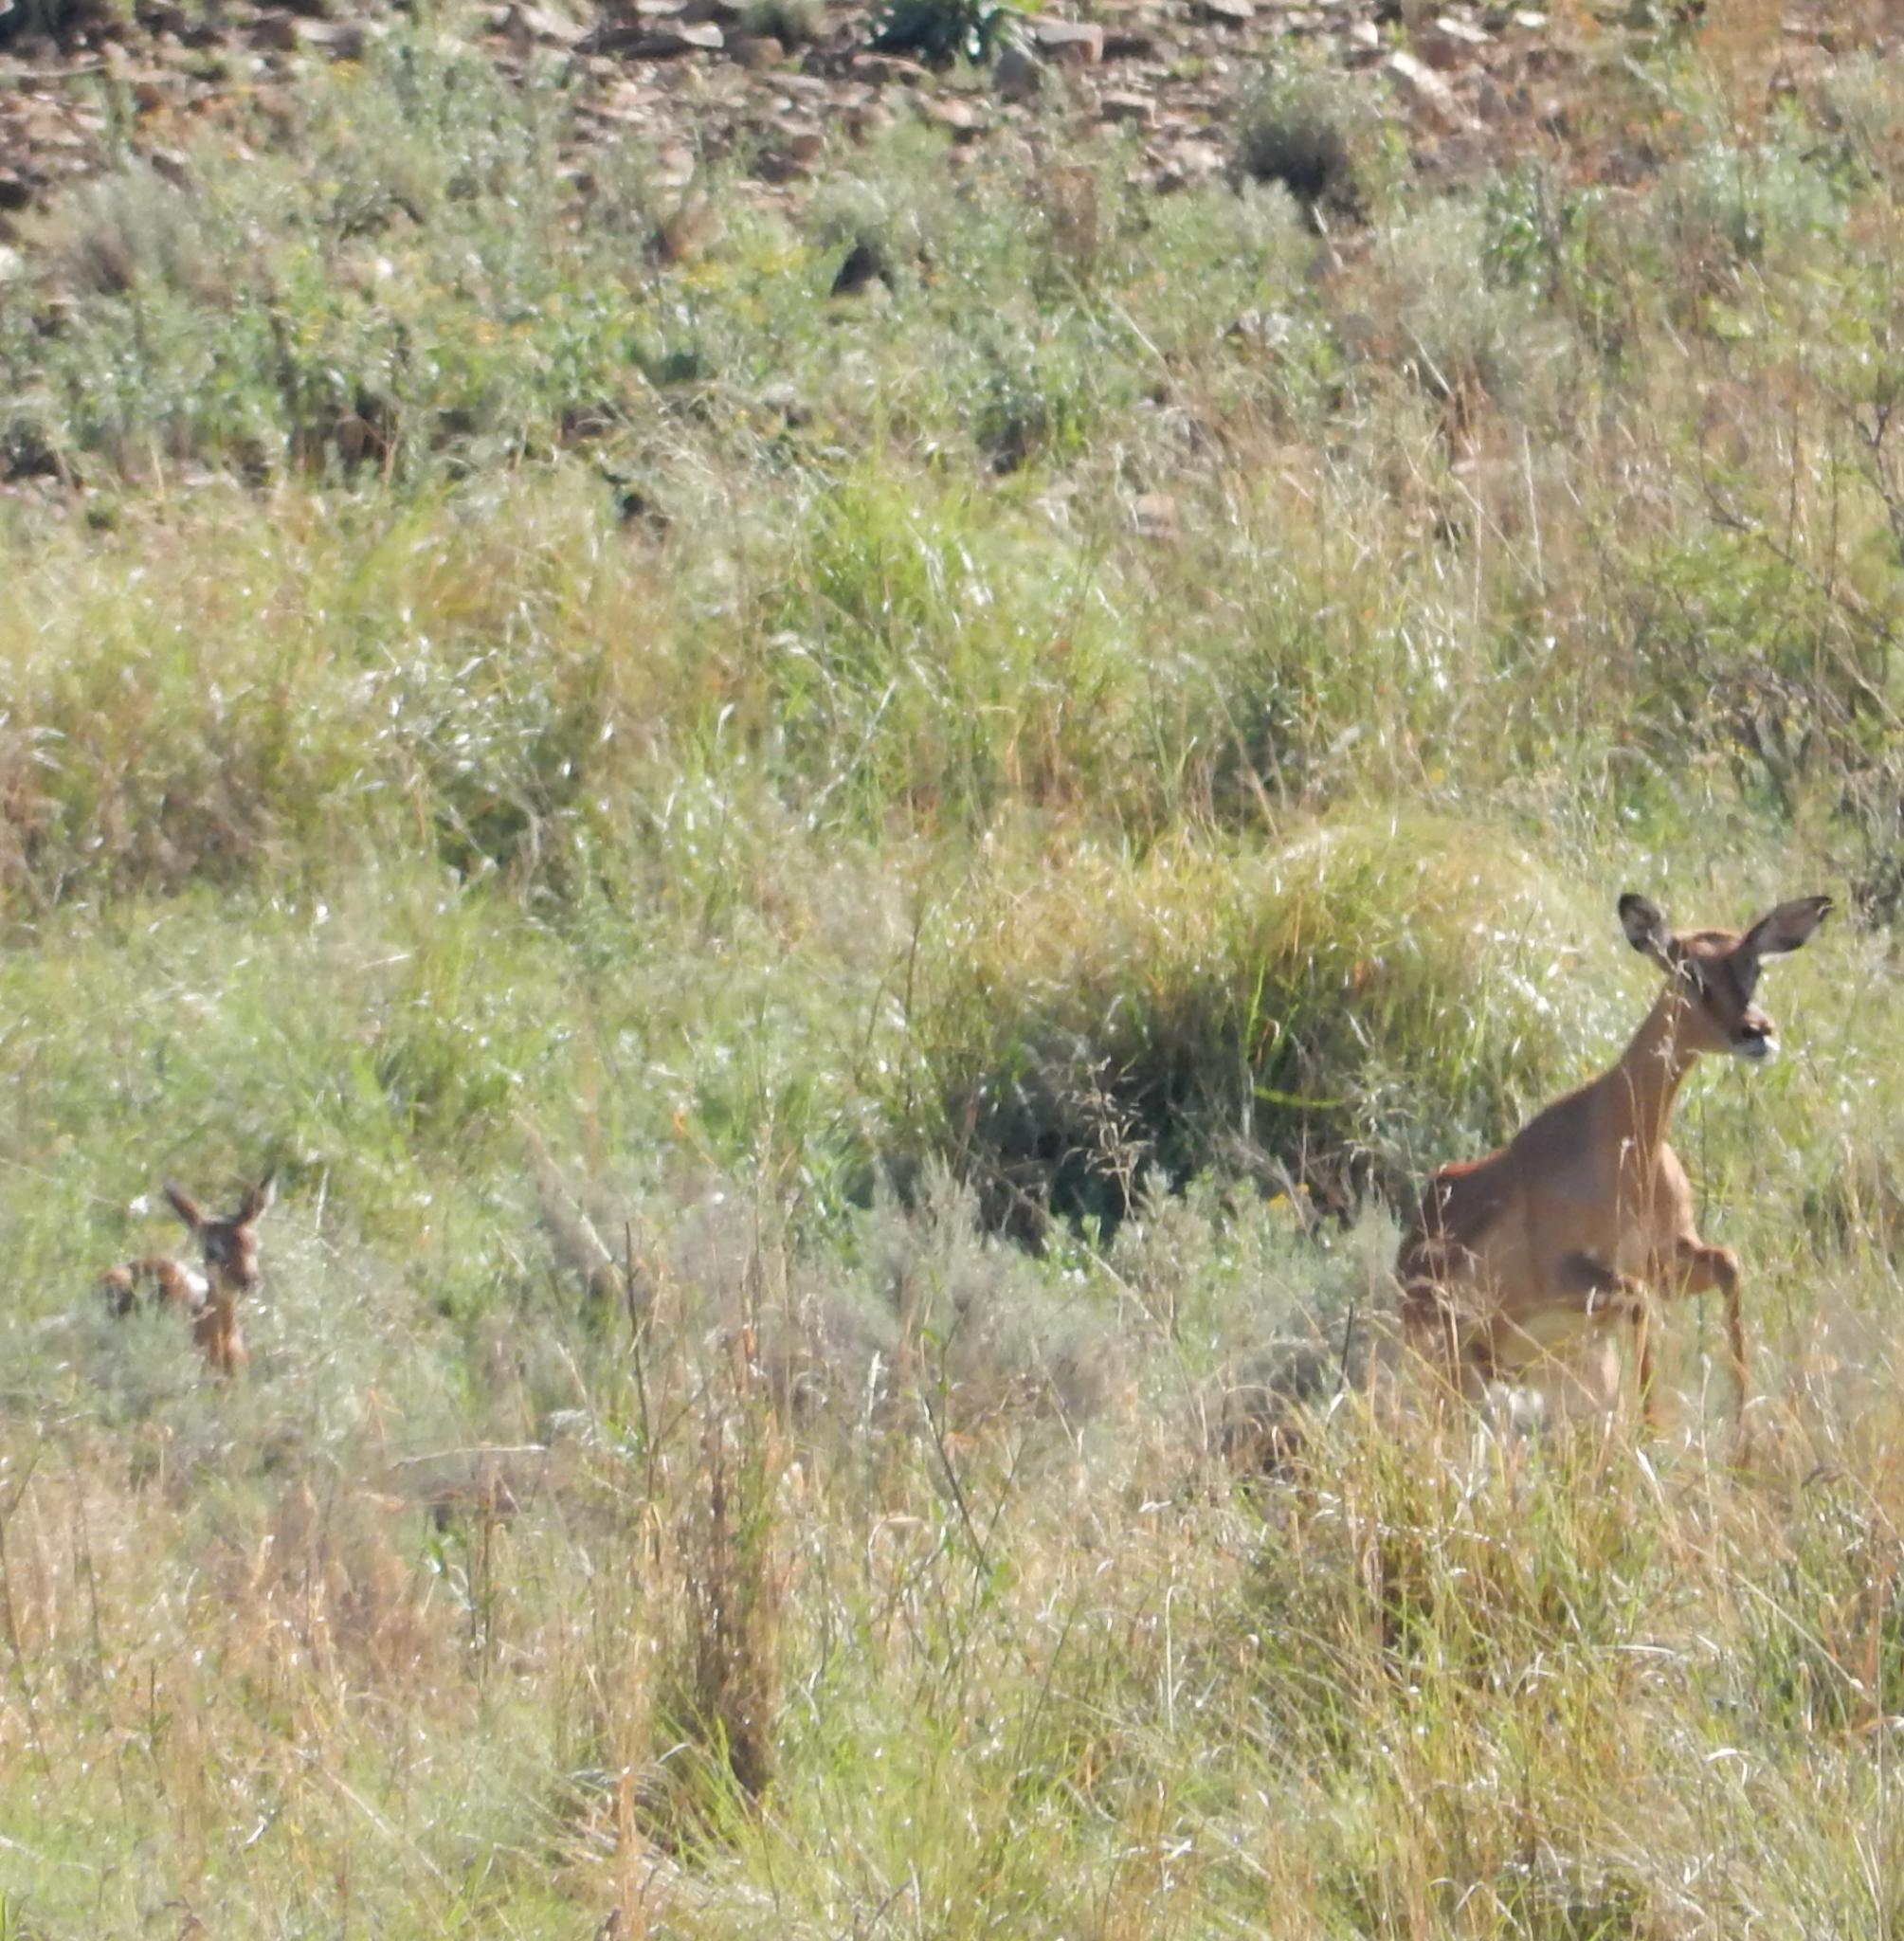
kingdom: Animalia
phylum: Chordata
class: Mammalia
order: Artiodactyla
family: Bovidae
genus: Aepyceros
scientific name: Aepyceros melampus
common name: Impala
